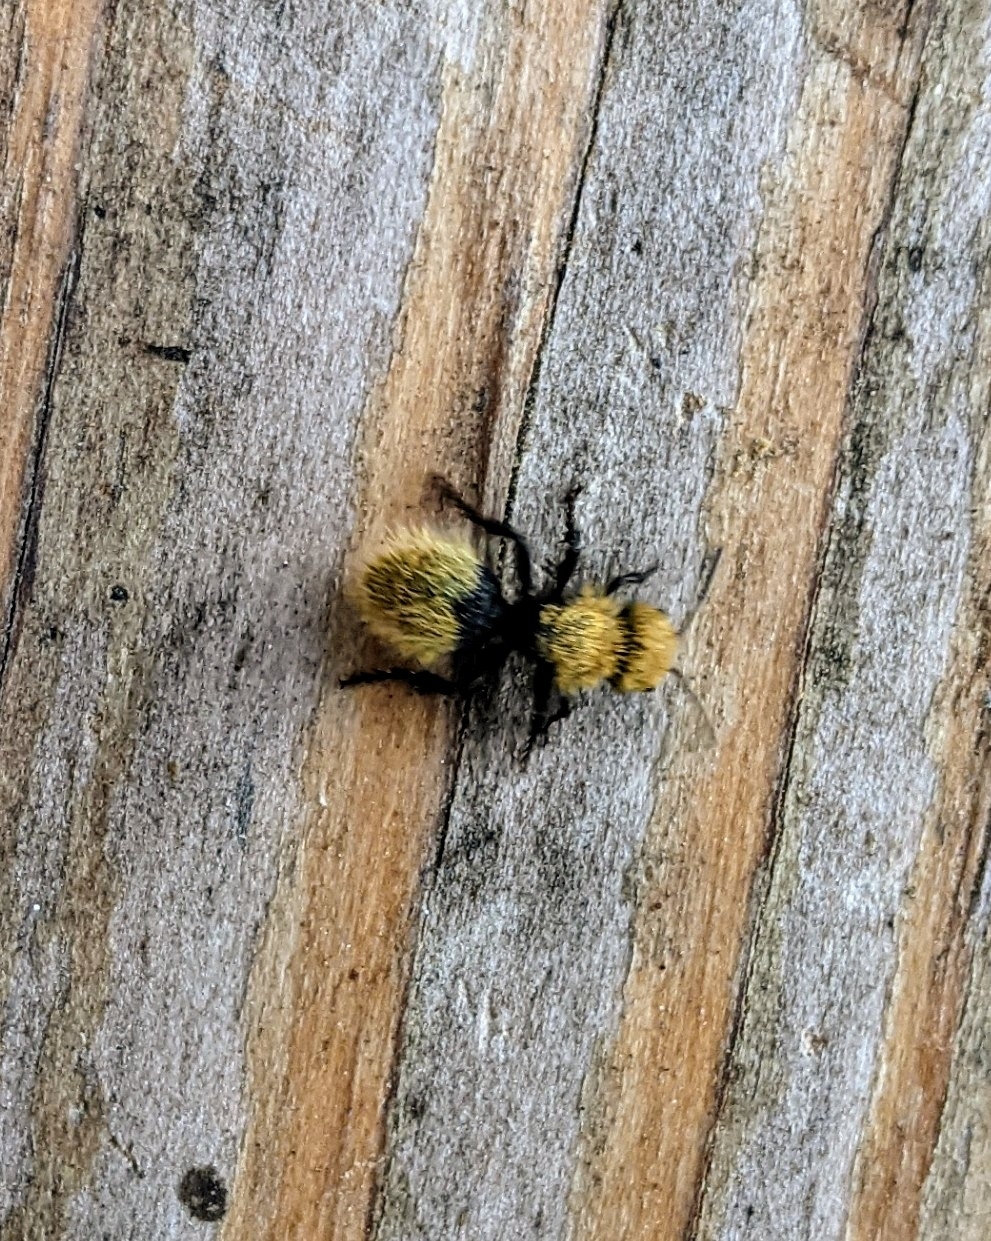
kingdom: Animalia
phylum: Arthropoda
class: Insecta
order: Hymenoptera
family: Mutillidae
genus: Dasymutilla
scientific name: Dasymutilla
